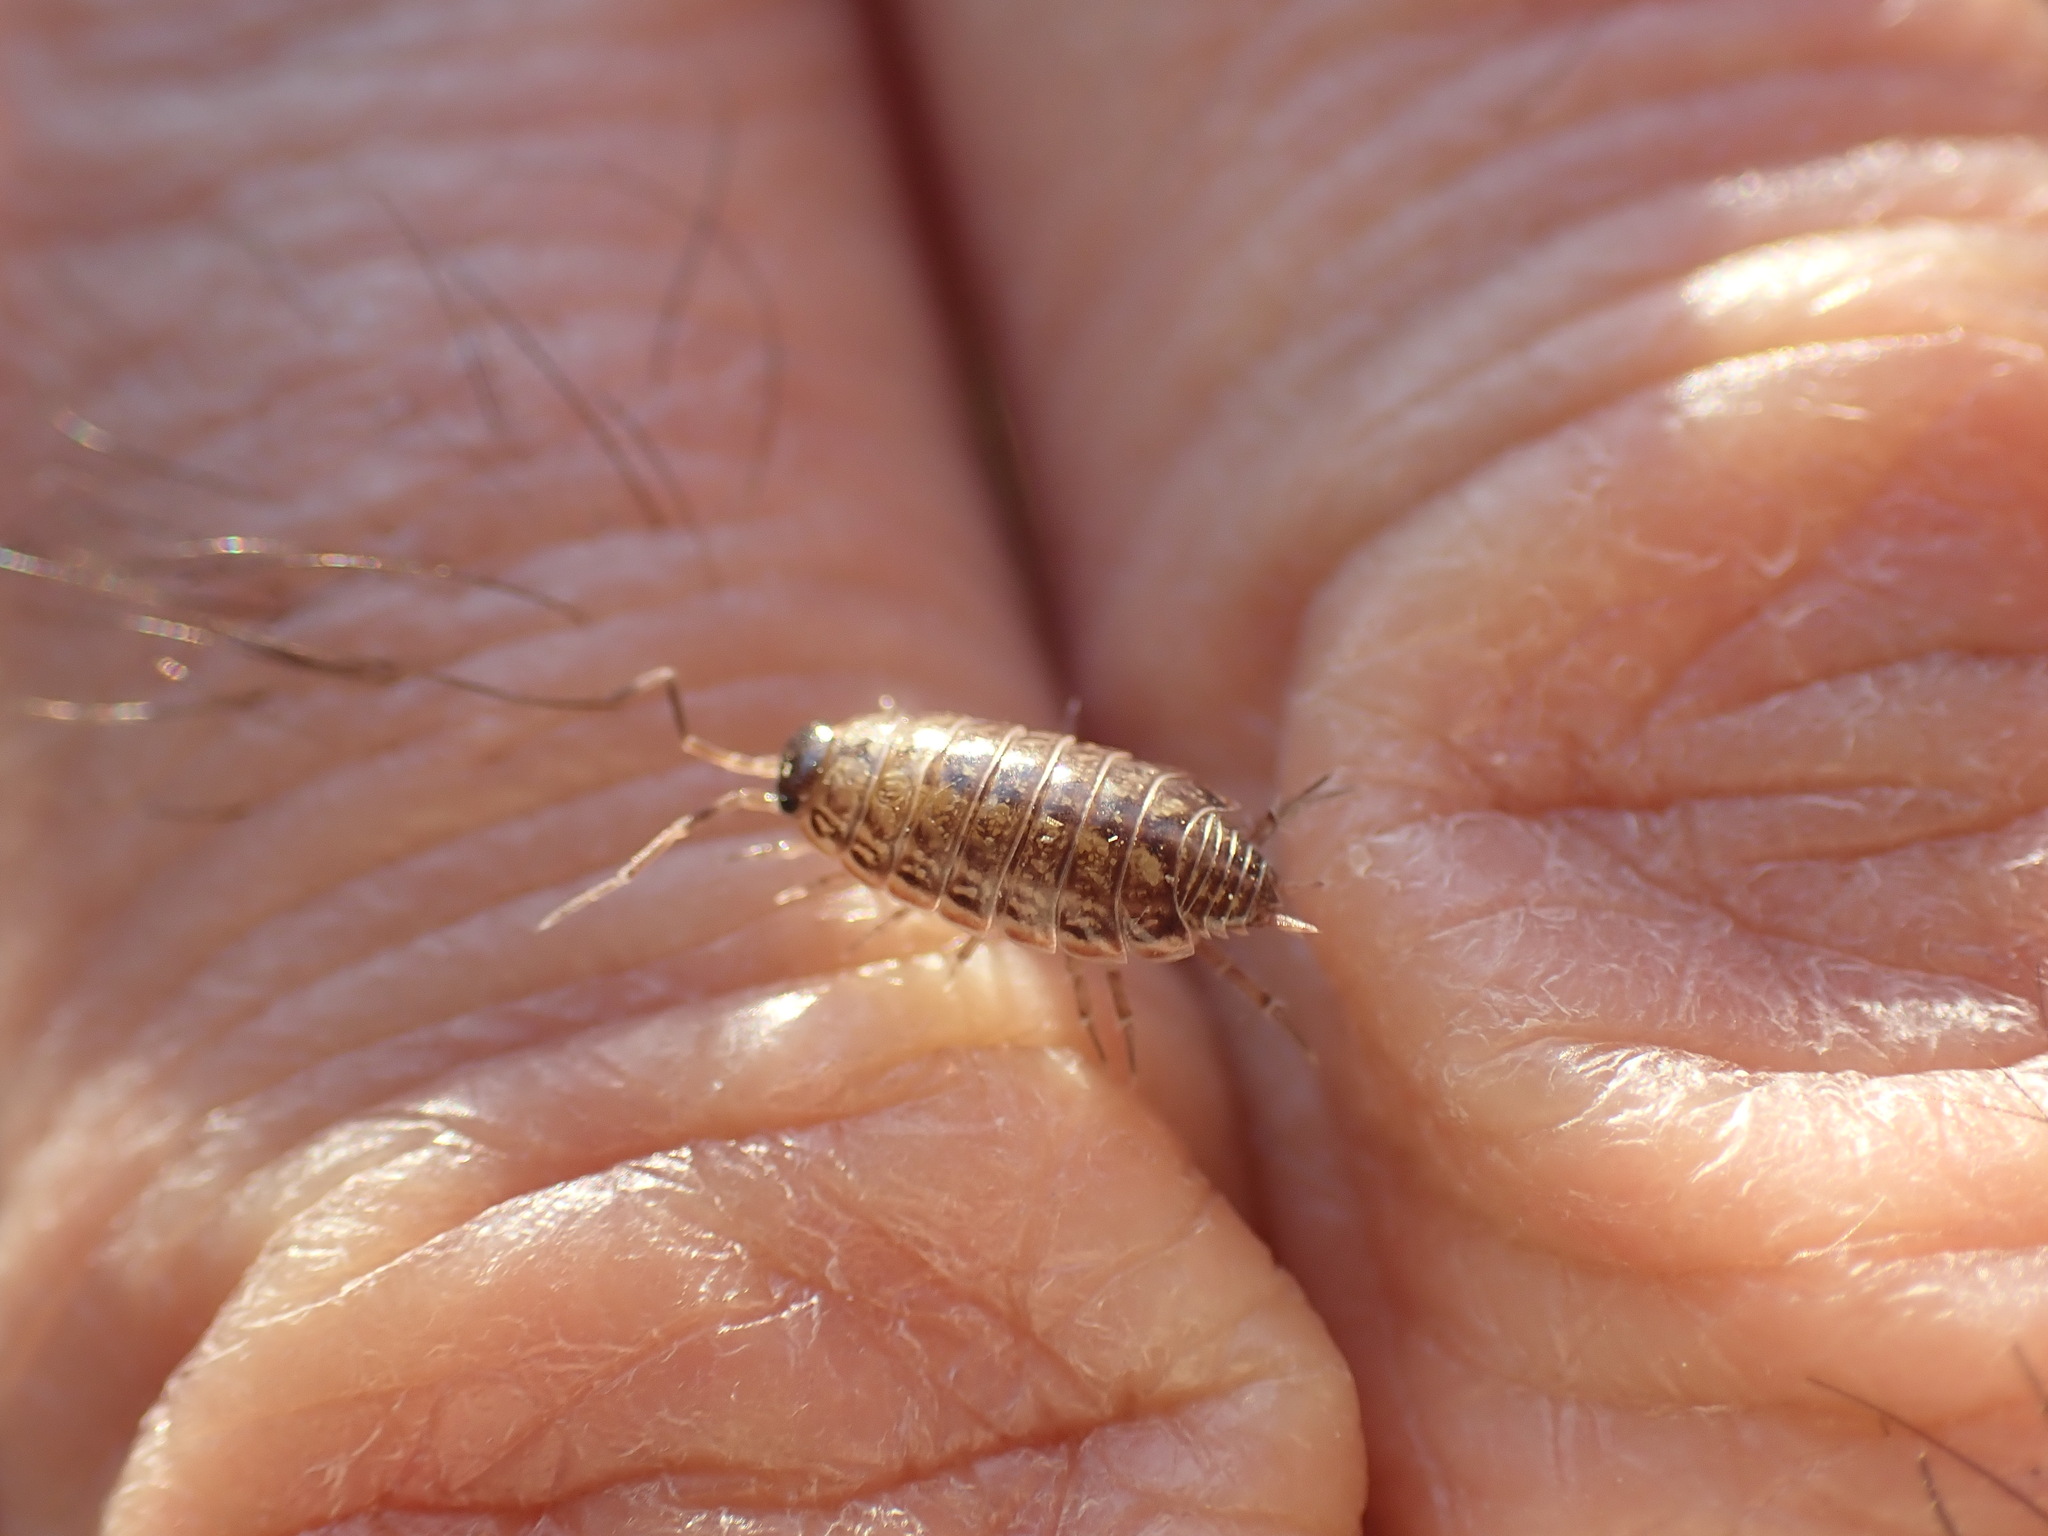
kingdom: Animalia
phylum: Arthropoda
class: Malacostraca
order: Isopoda
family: Philosciidae
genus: Philoscia
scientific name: Philoscia muscorum
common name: Common striped woodlouse
